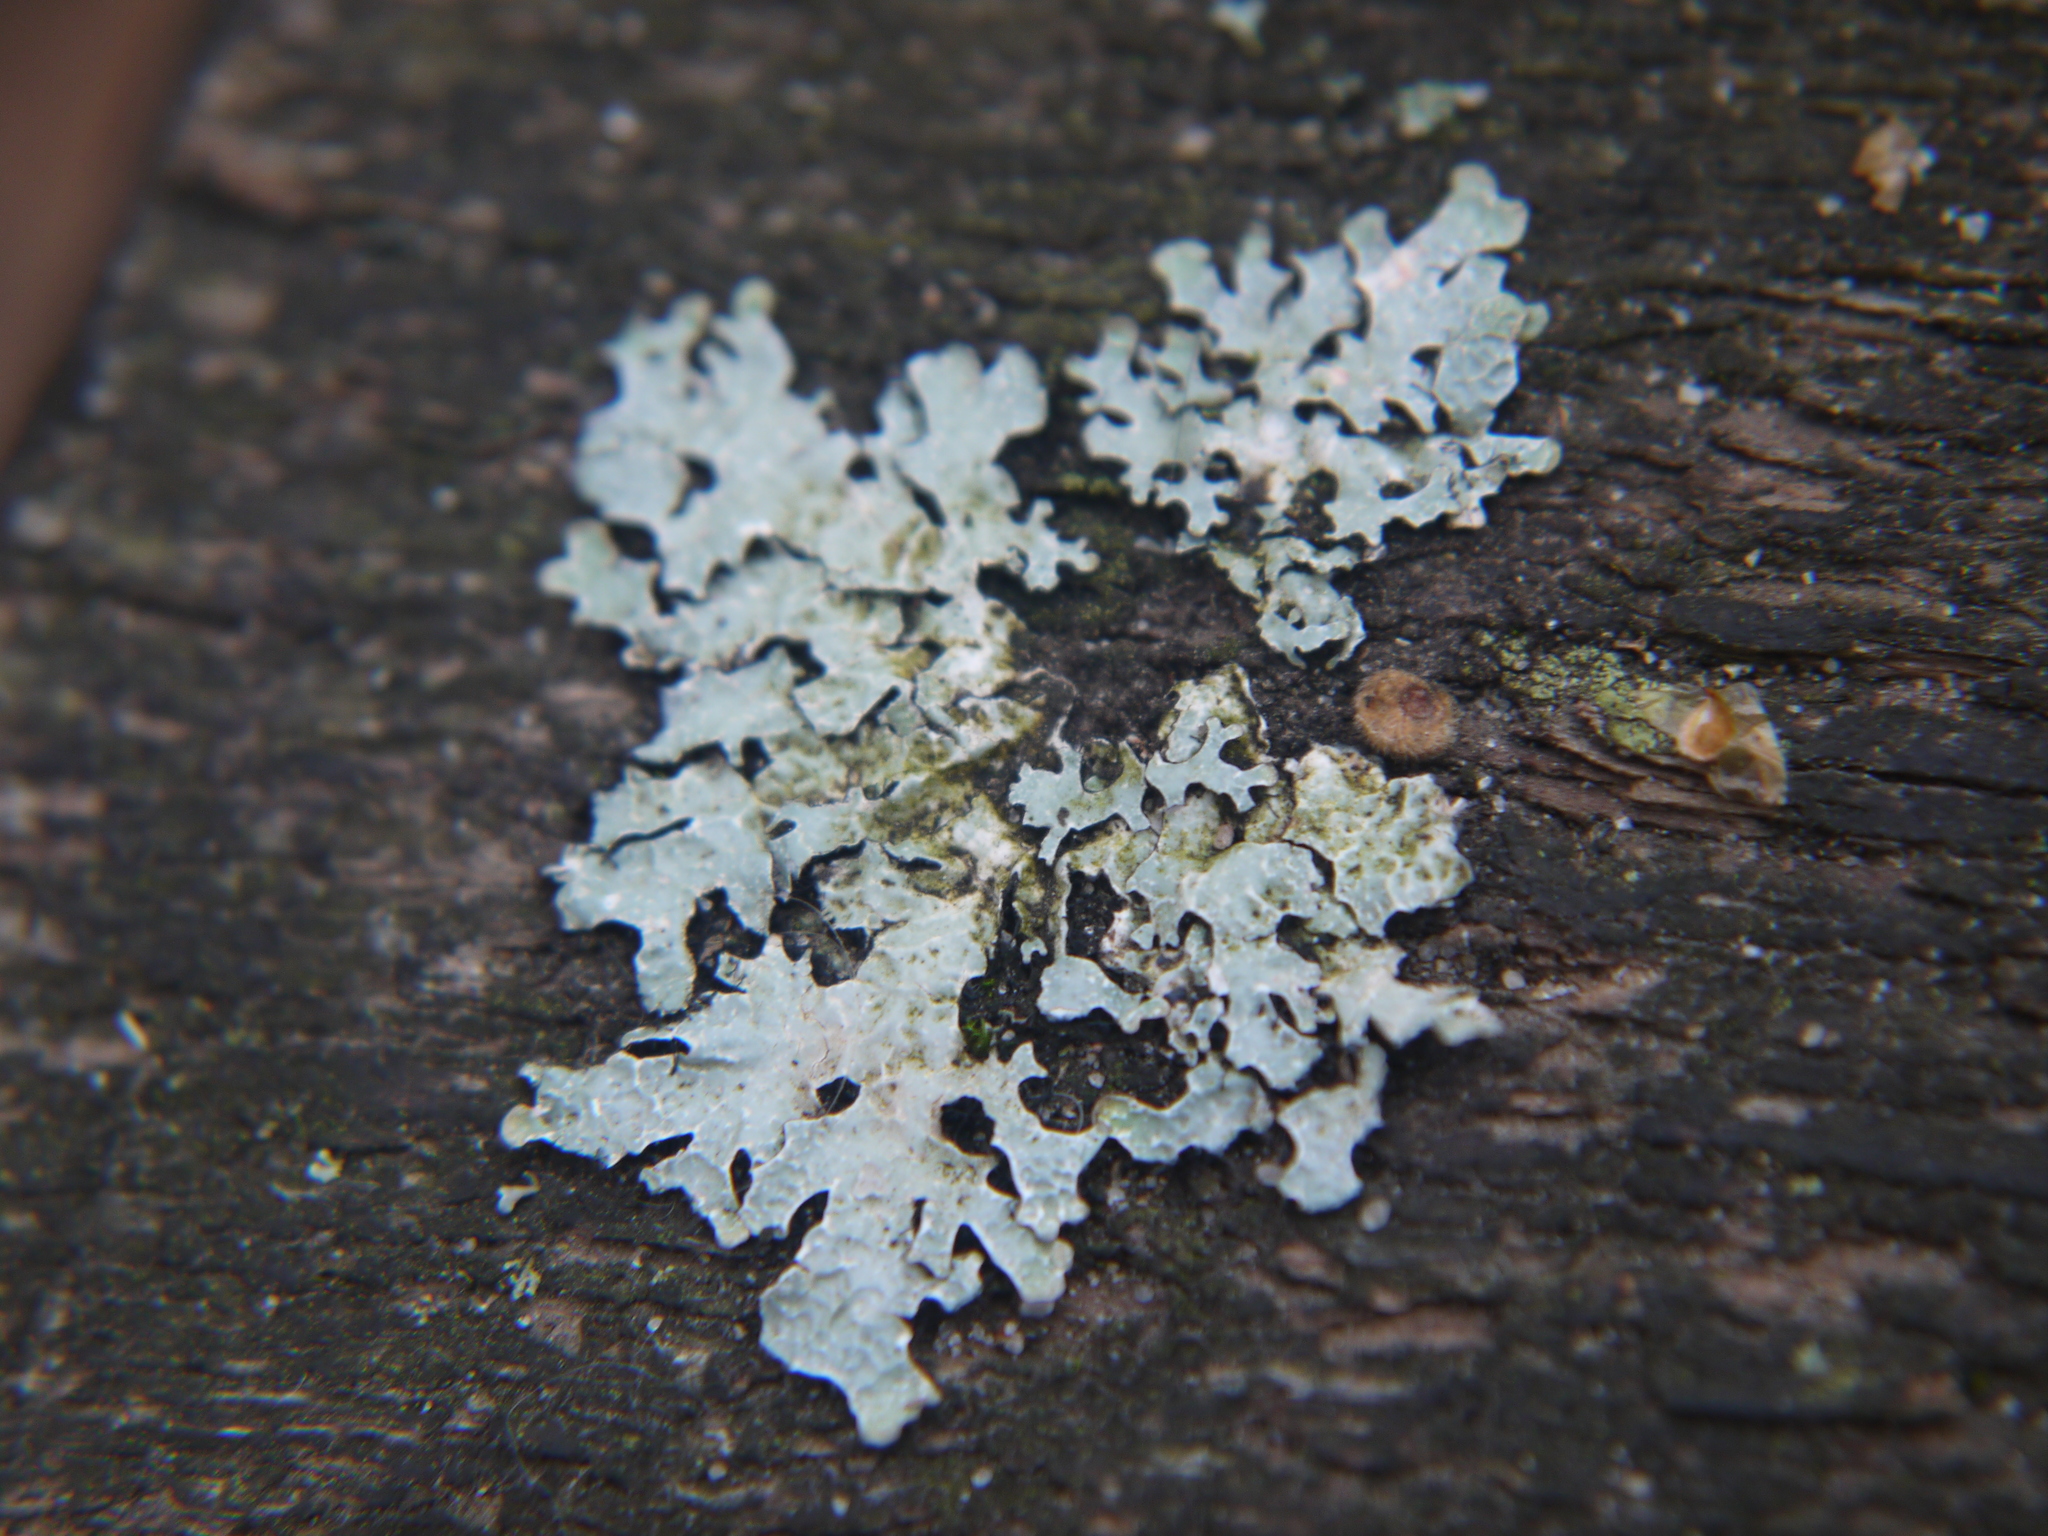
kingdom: Fungi
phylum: Ascomycota
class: Lecanoromycetes
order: Lecanorales
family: Parmeliaceae
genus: Parmelia
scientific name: Parmelia sulcata
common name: Netted shield lichen
